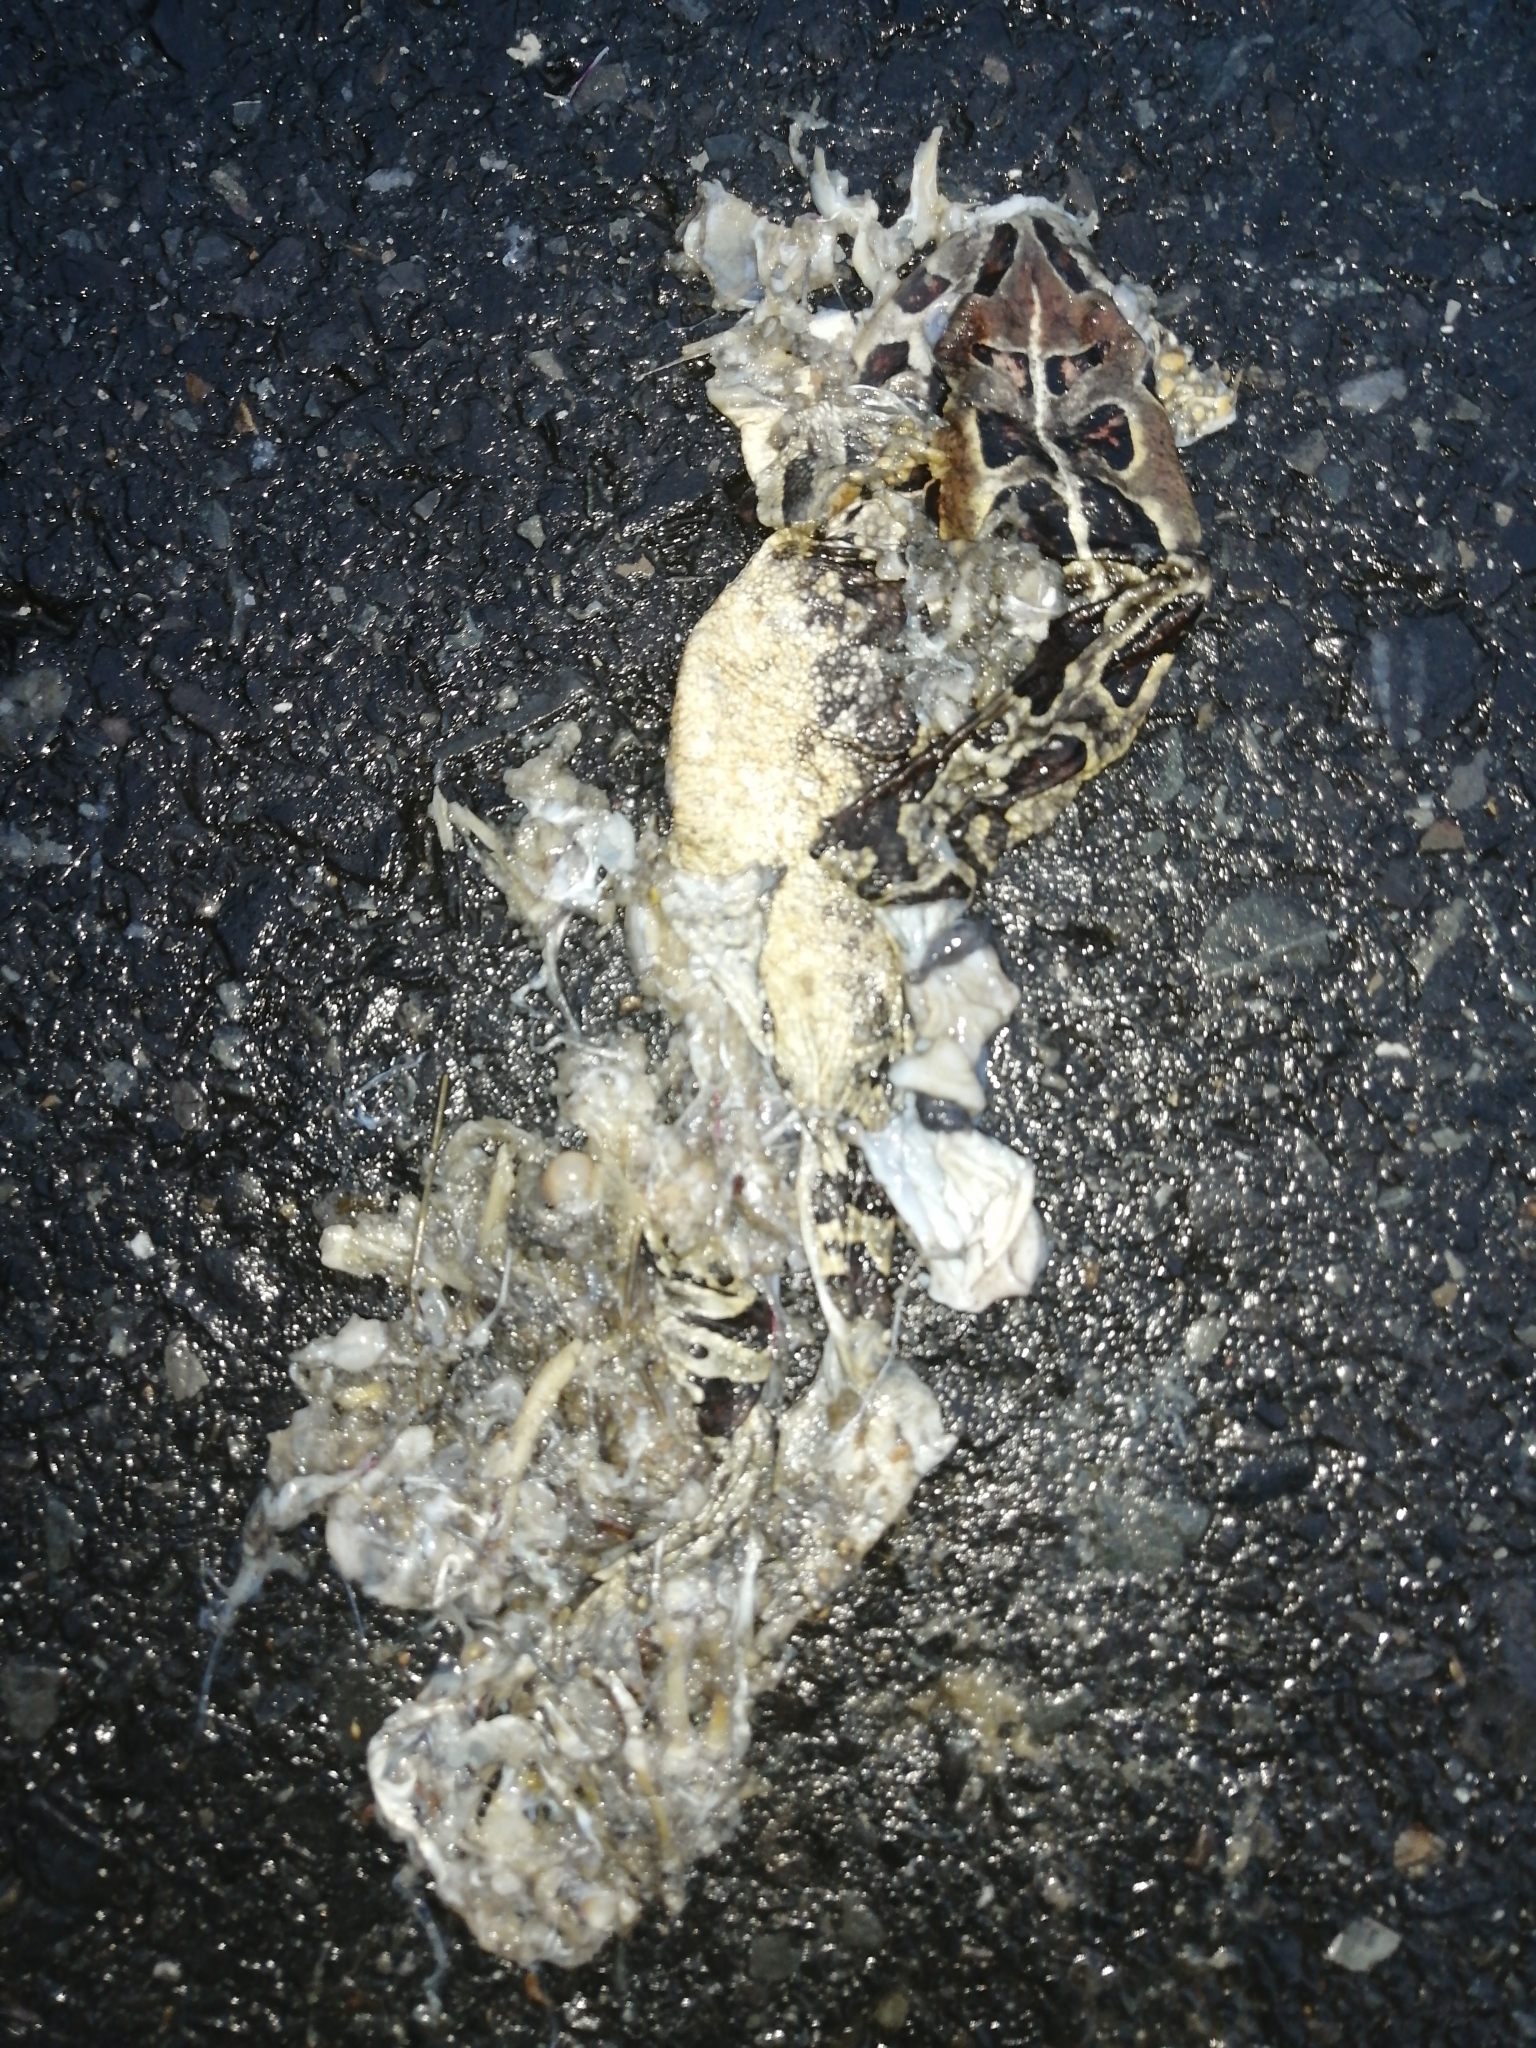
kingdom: Animalia
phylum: Chordata
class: Amphibia
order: Anura
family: Bufonidae
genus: Sclerophrys
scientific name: Sclerophrys pantherina
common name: Panther toad
